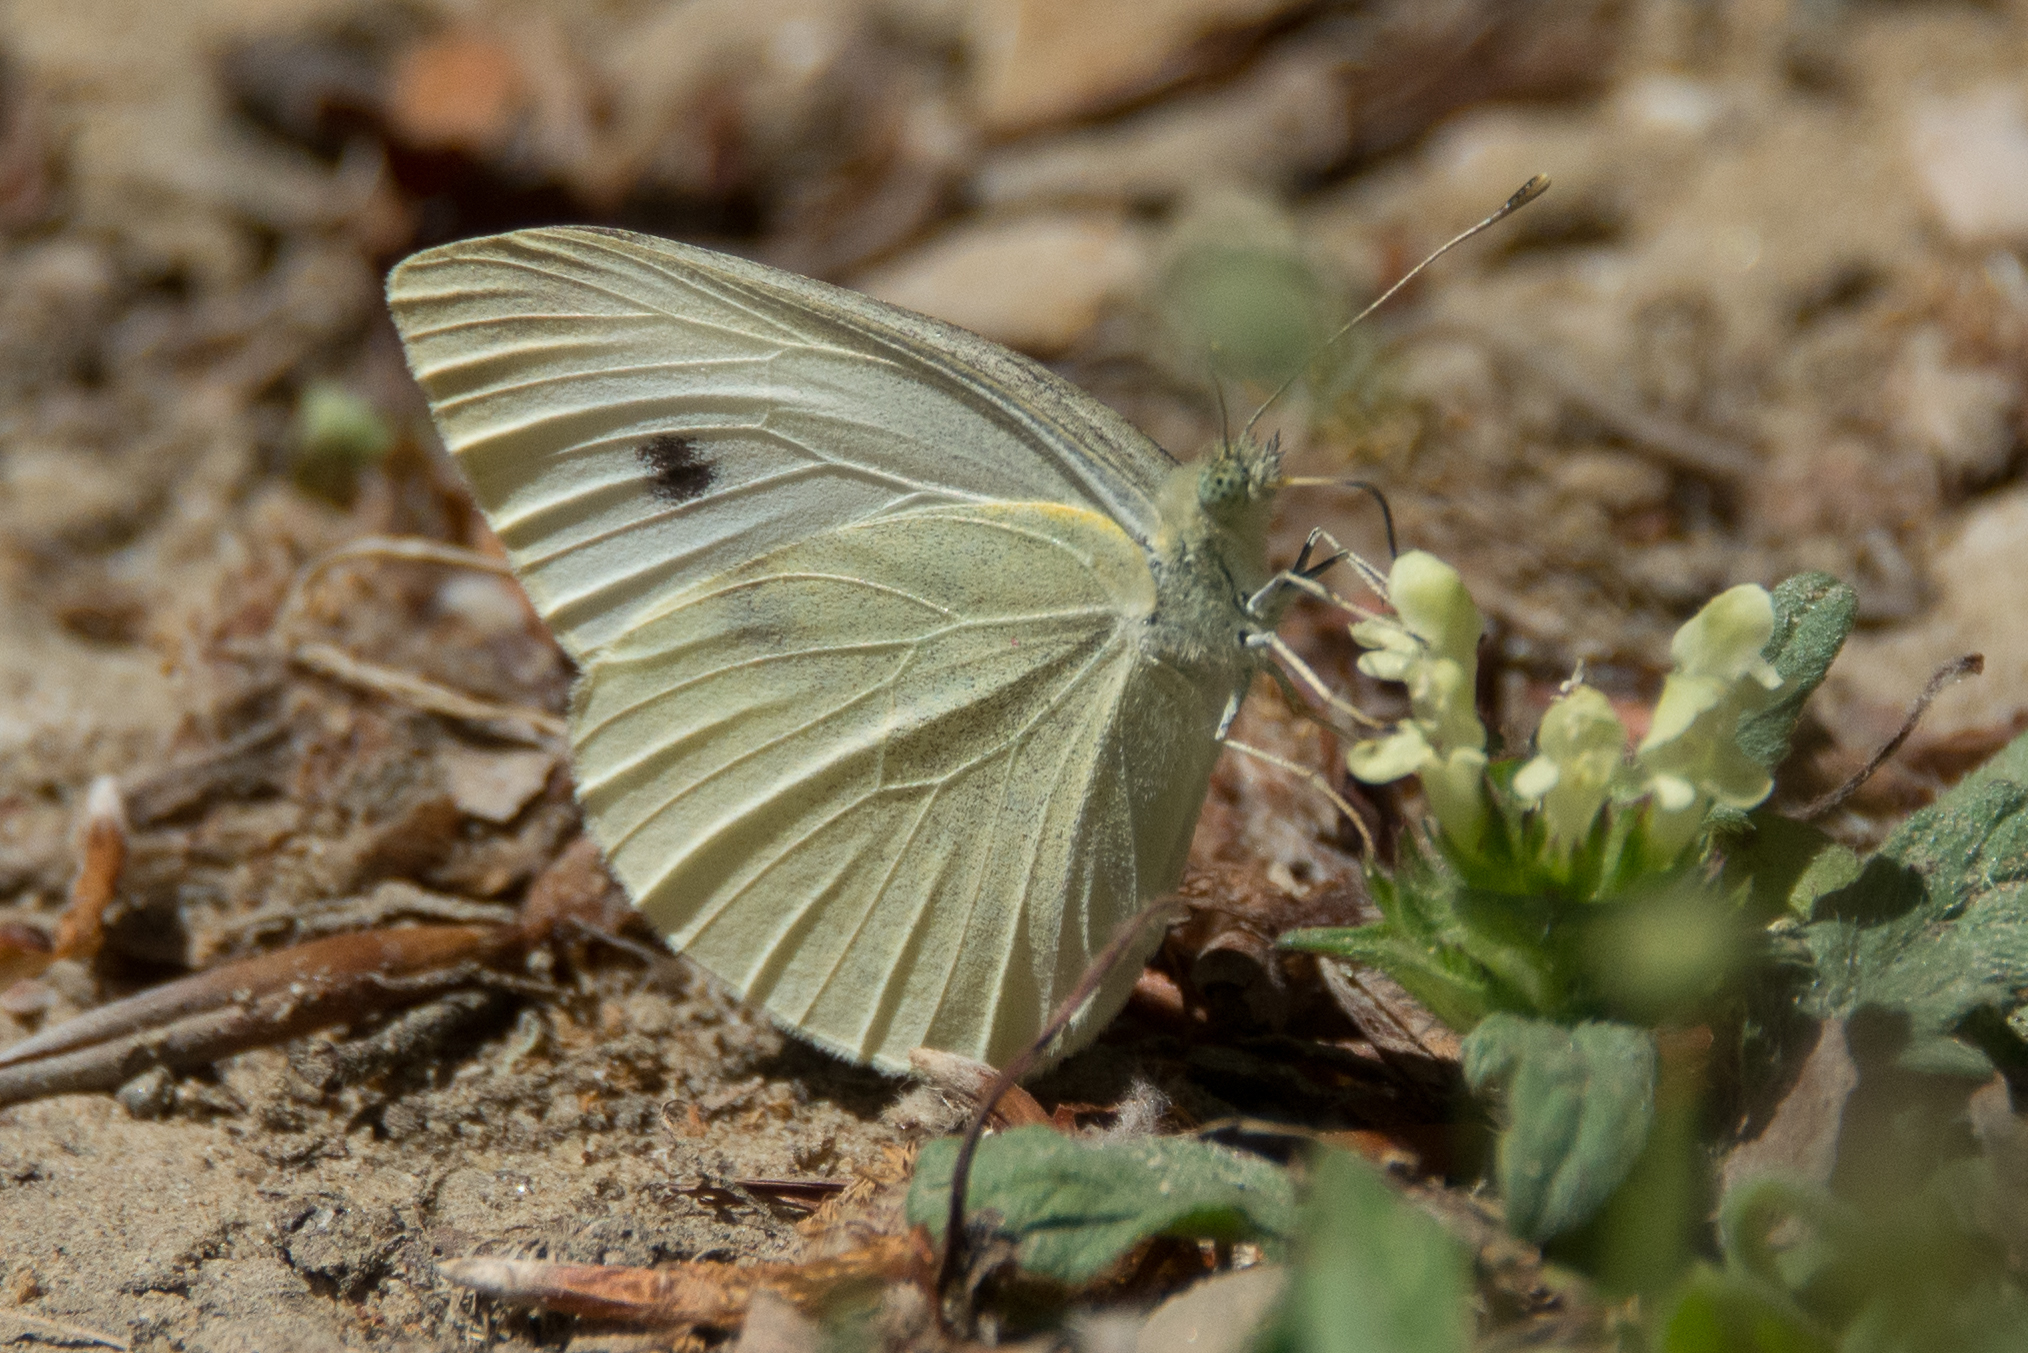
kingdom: Animalia
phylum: Arthropoda
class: Insecta
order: Lepidoptera
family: Pieridae
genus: Pieris
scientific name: Pieris rapae
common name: Small white
